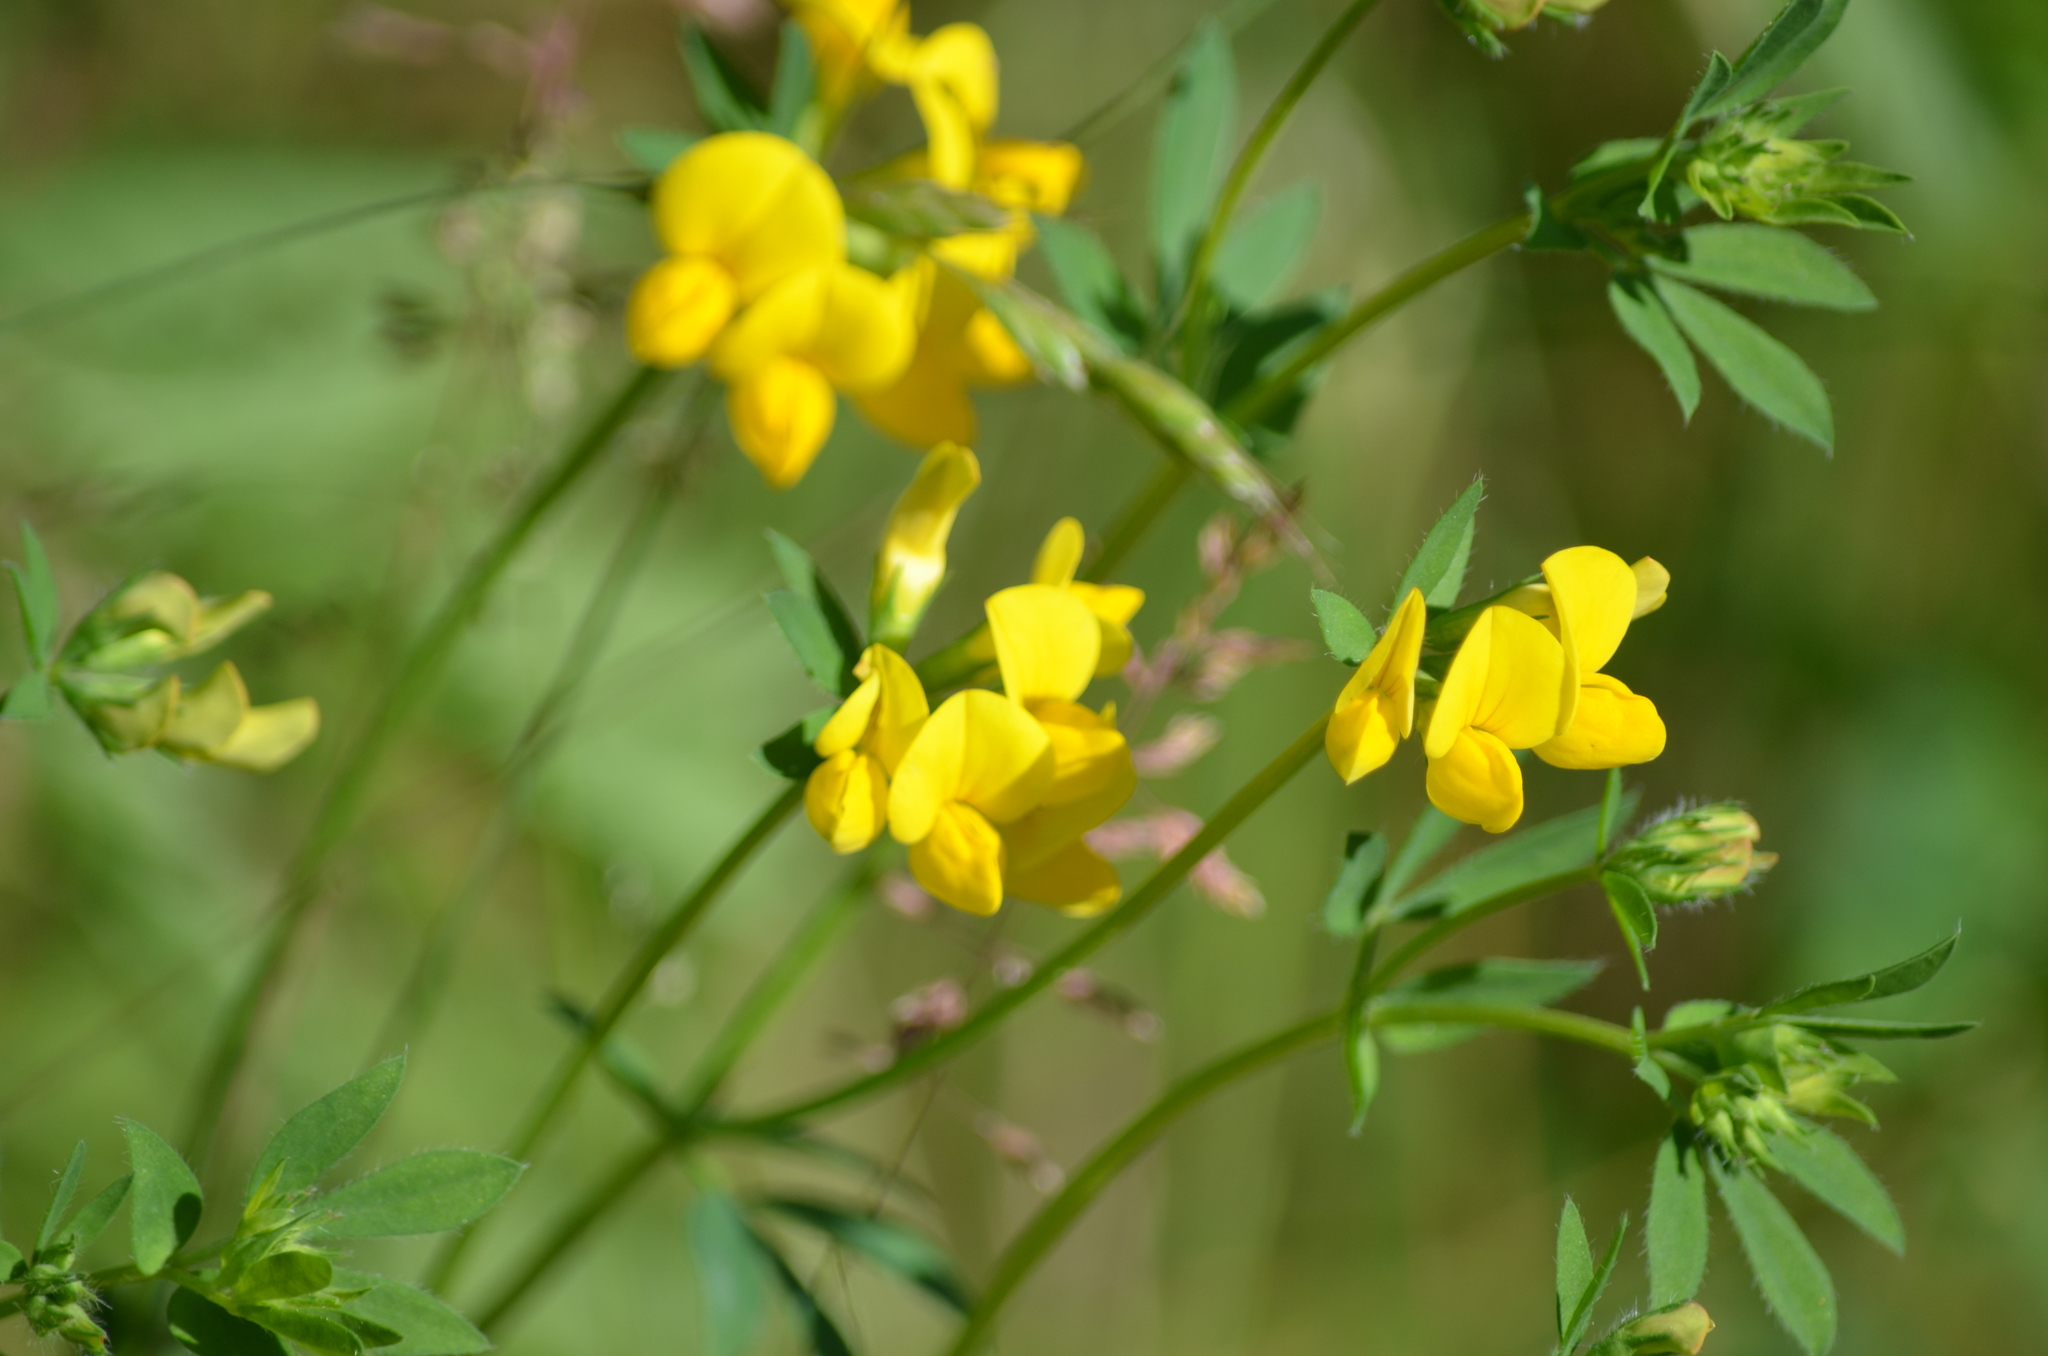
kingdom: Plantae
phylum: Tracheophyta
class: Magnoliopsida
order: Fabales
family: Fabaceae
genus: Lotus
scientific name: Lotus corniculatus
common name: Common bird's-foot-trefoil
